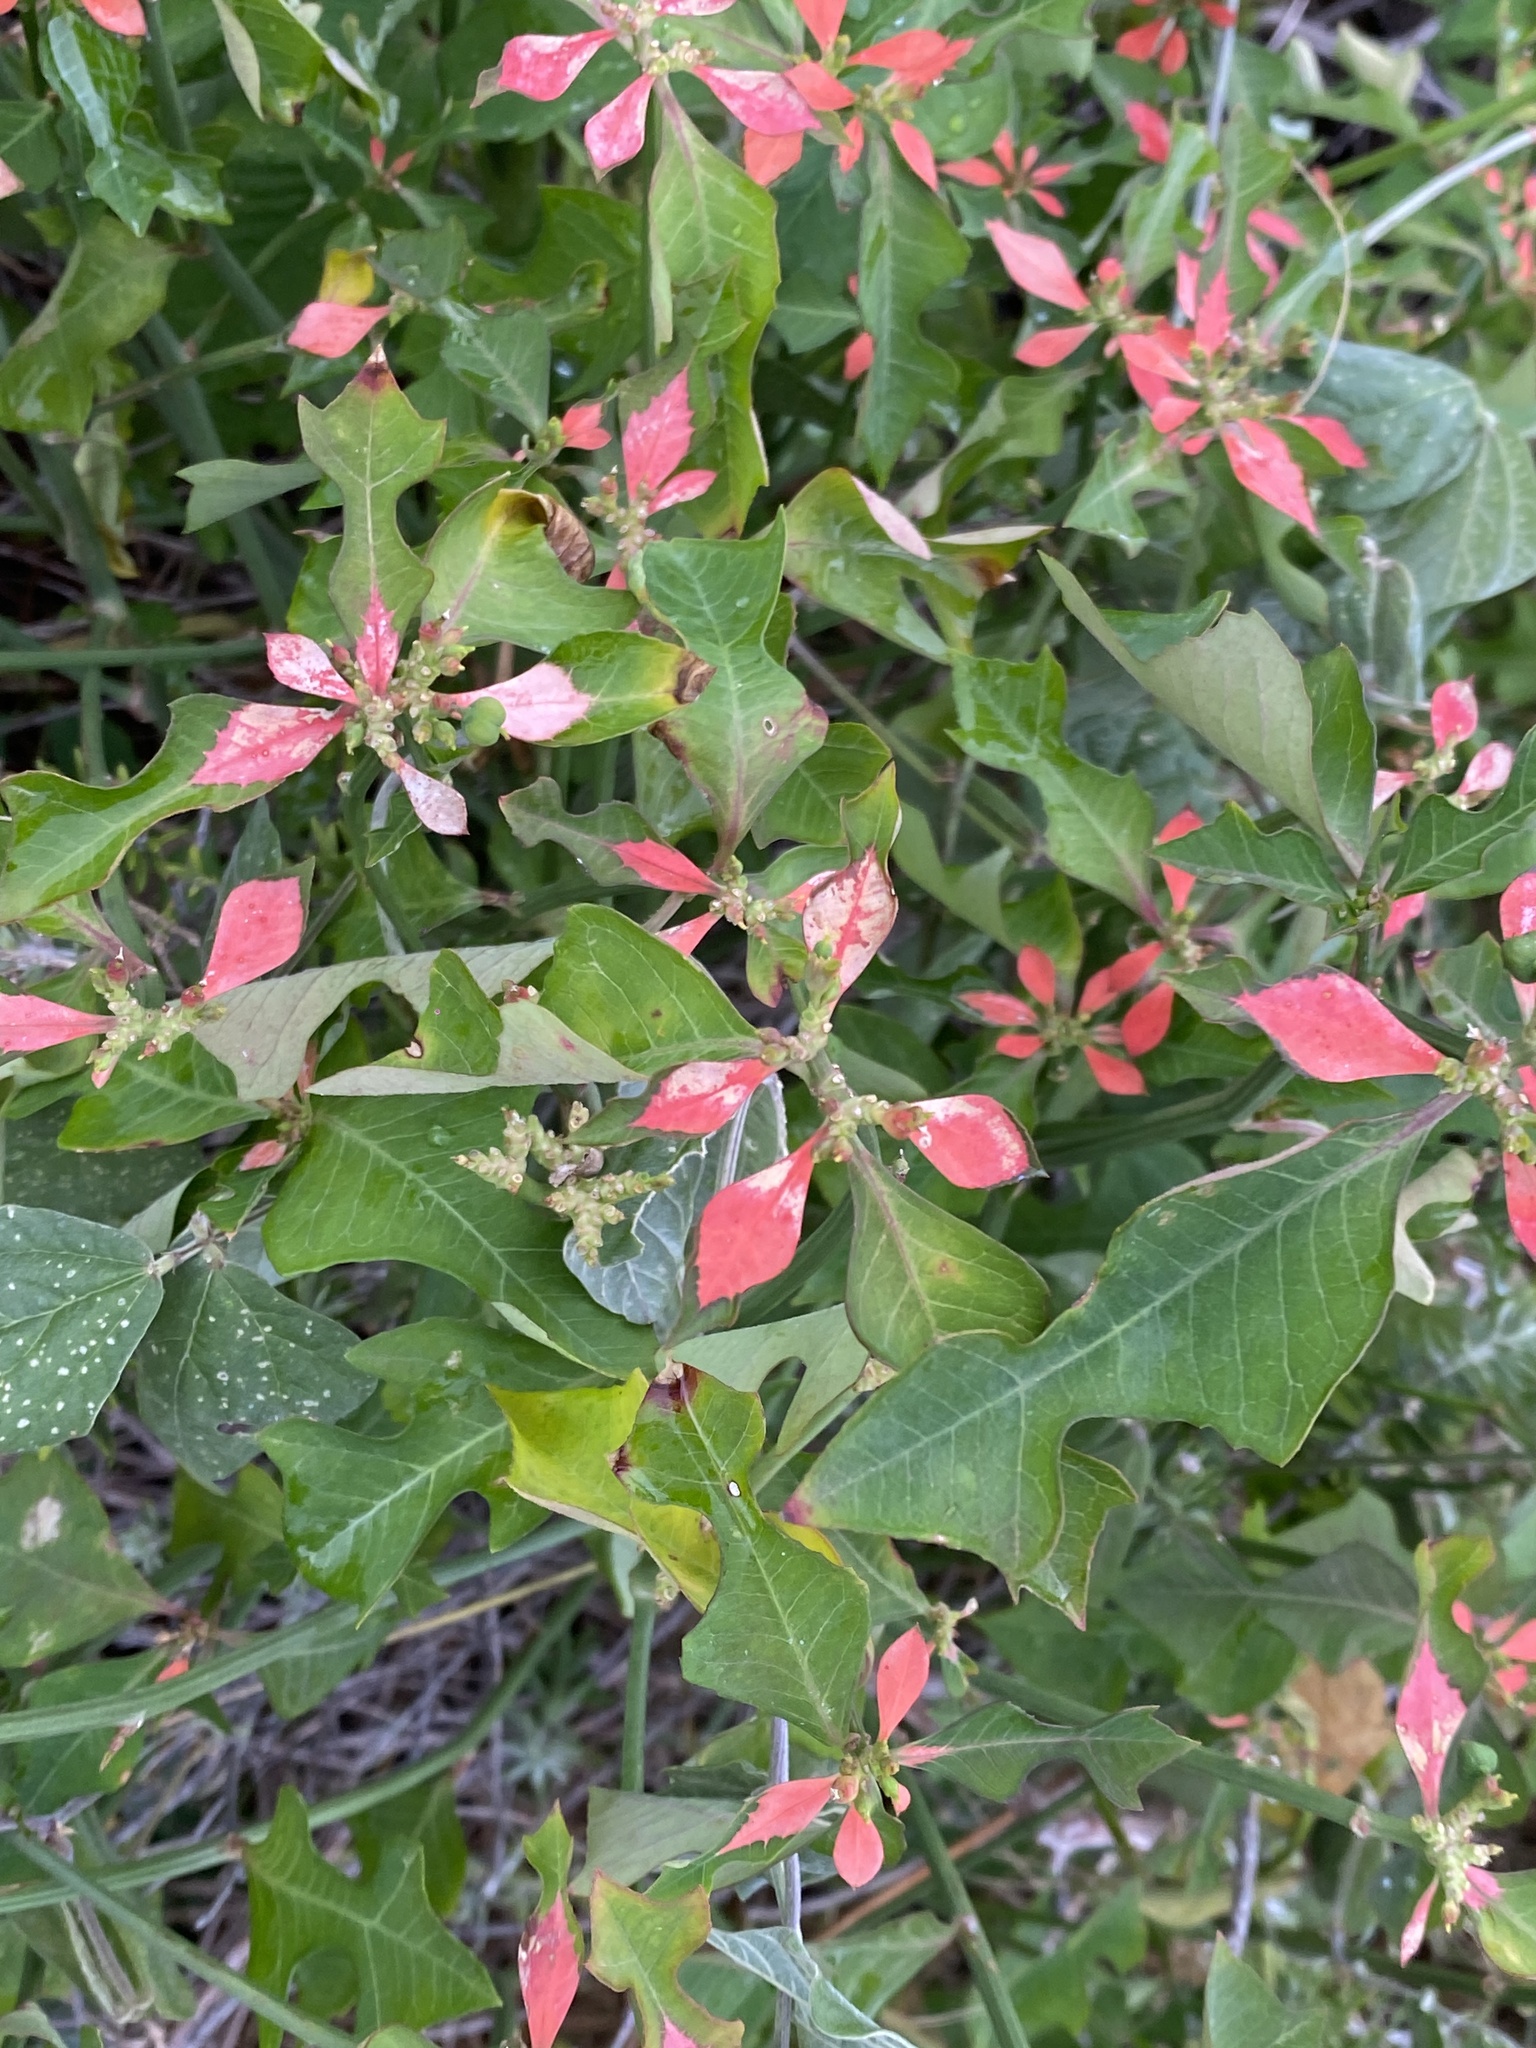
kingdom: Plantae
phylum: Tracheophyta
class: Magnoliopsida
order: Malpighiales
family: Euphorbiaceae
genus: Euphorbia
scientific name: Euphorbia heterophylla
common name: Mexican fireplant
